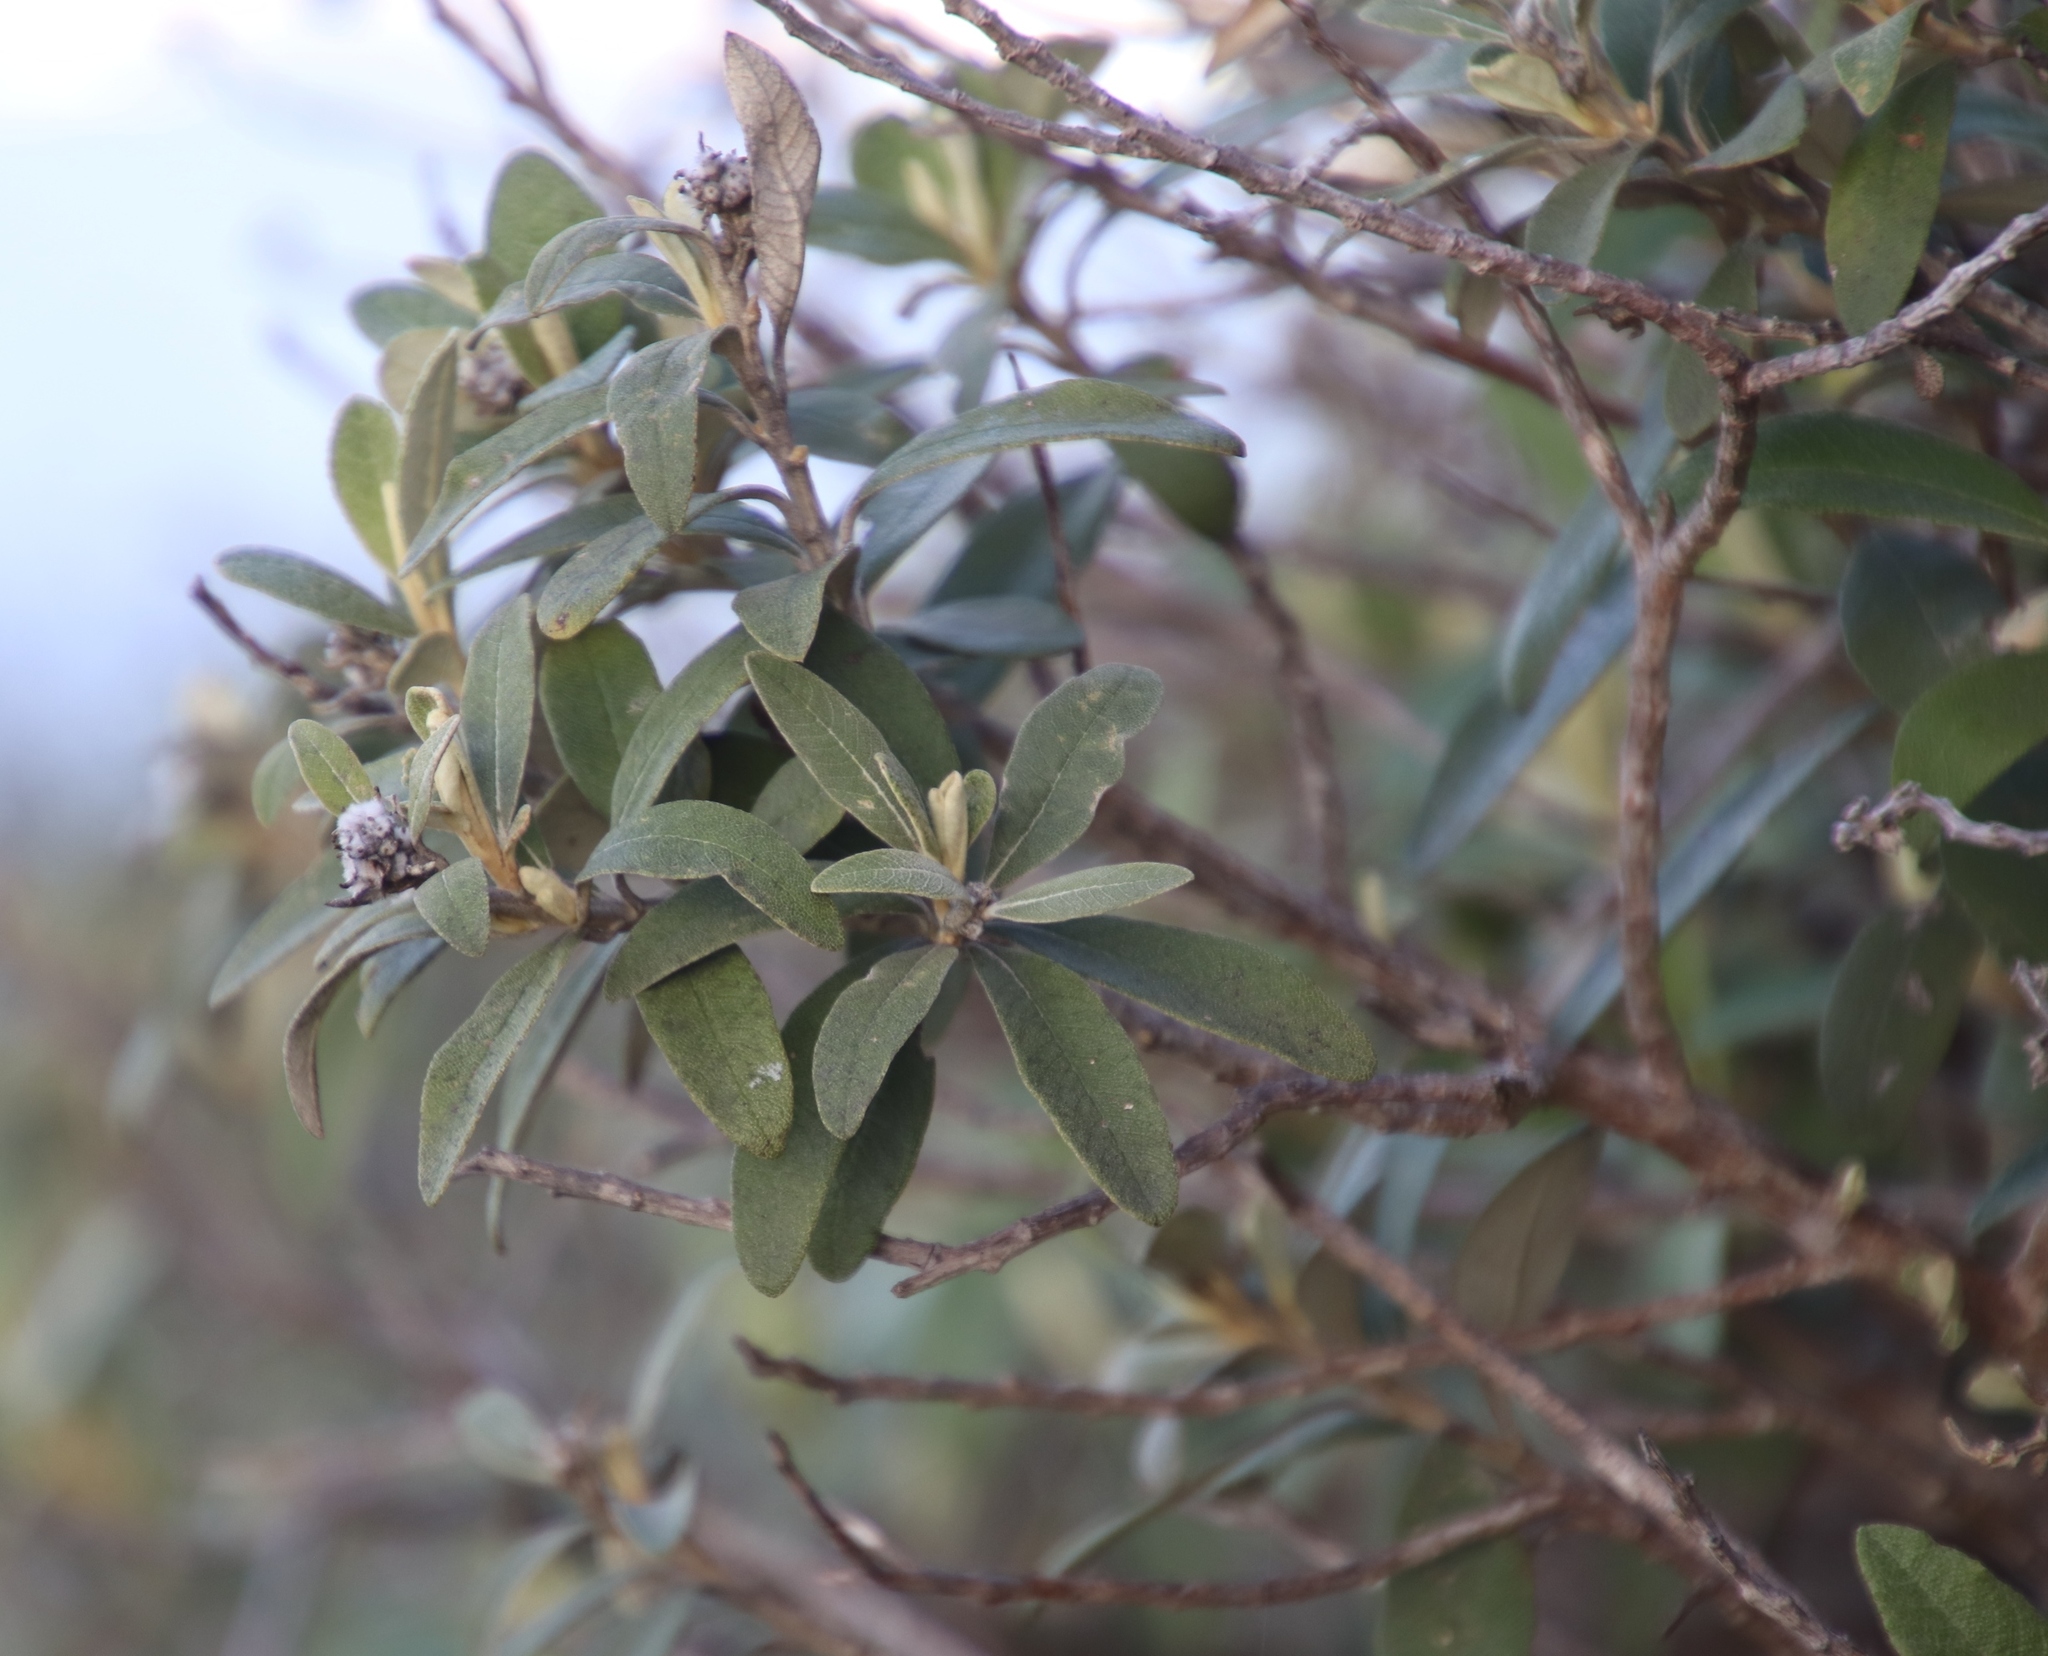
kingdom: Plantae
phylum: Tracheophyta
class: Magnoliopsida
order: Asterales
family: Asteraceae
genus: Tarchonanthus
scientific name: Tarchonanthus littoralis
